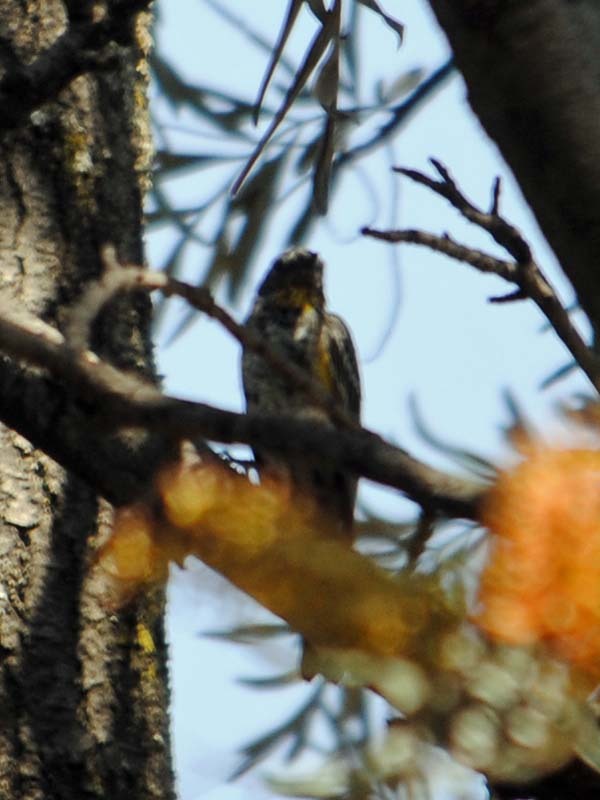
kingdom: Animalia
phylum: Chordata
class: Aves
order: Passeriformes
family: Parulidae
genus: Setophaga
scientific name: Setophaga auduboni
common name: Audubon's warbler
